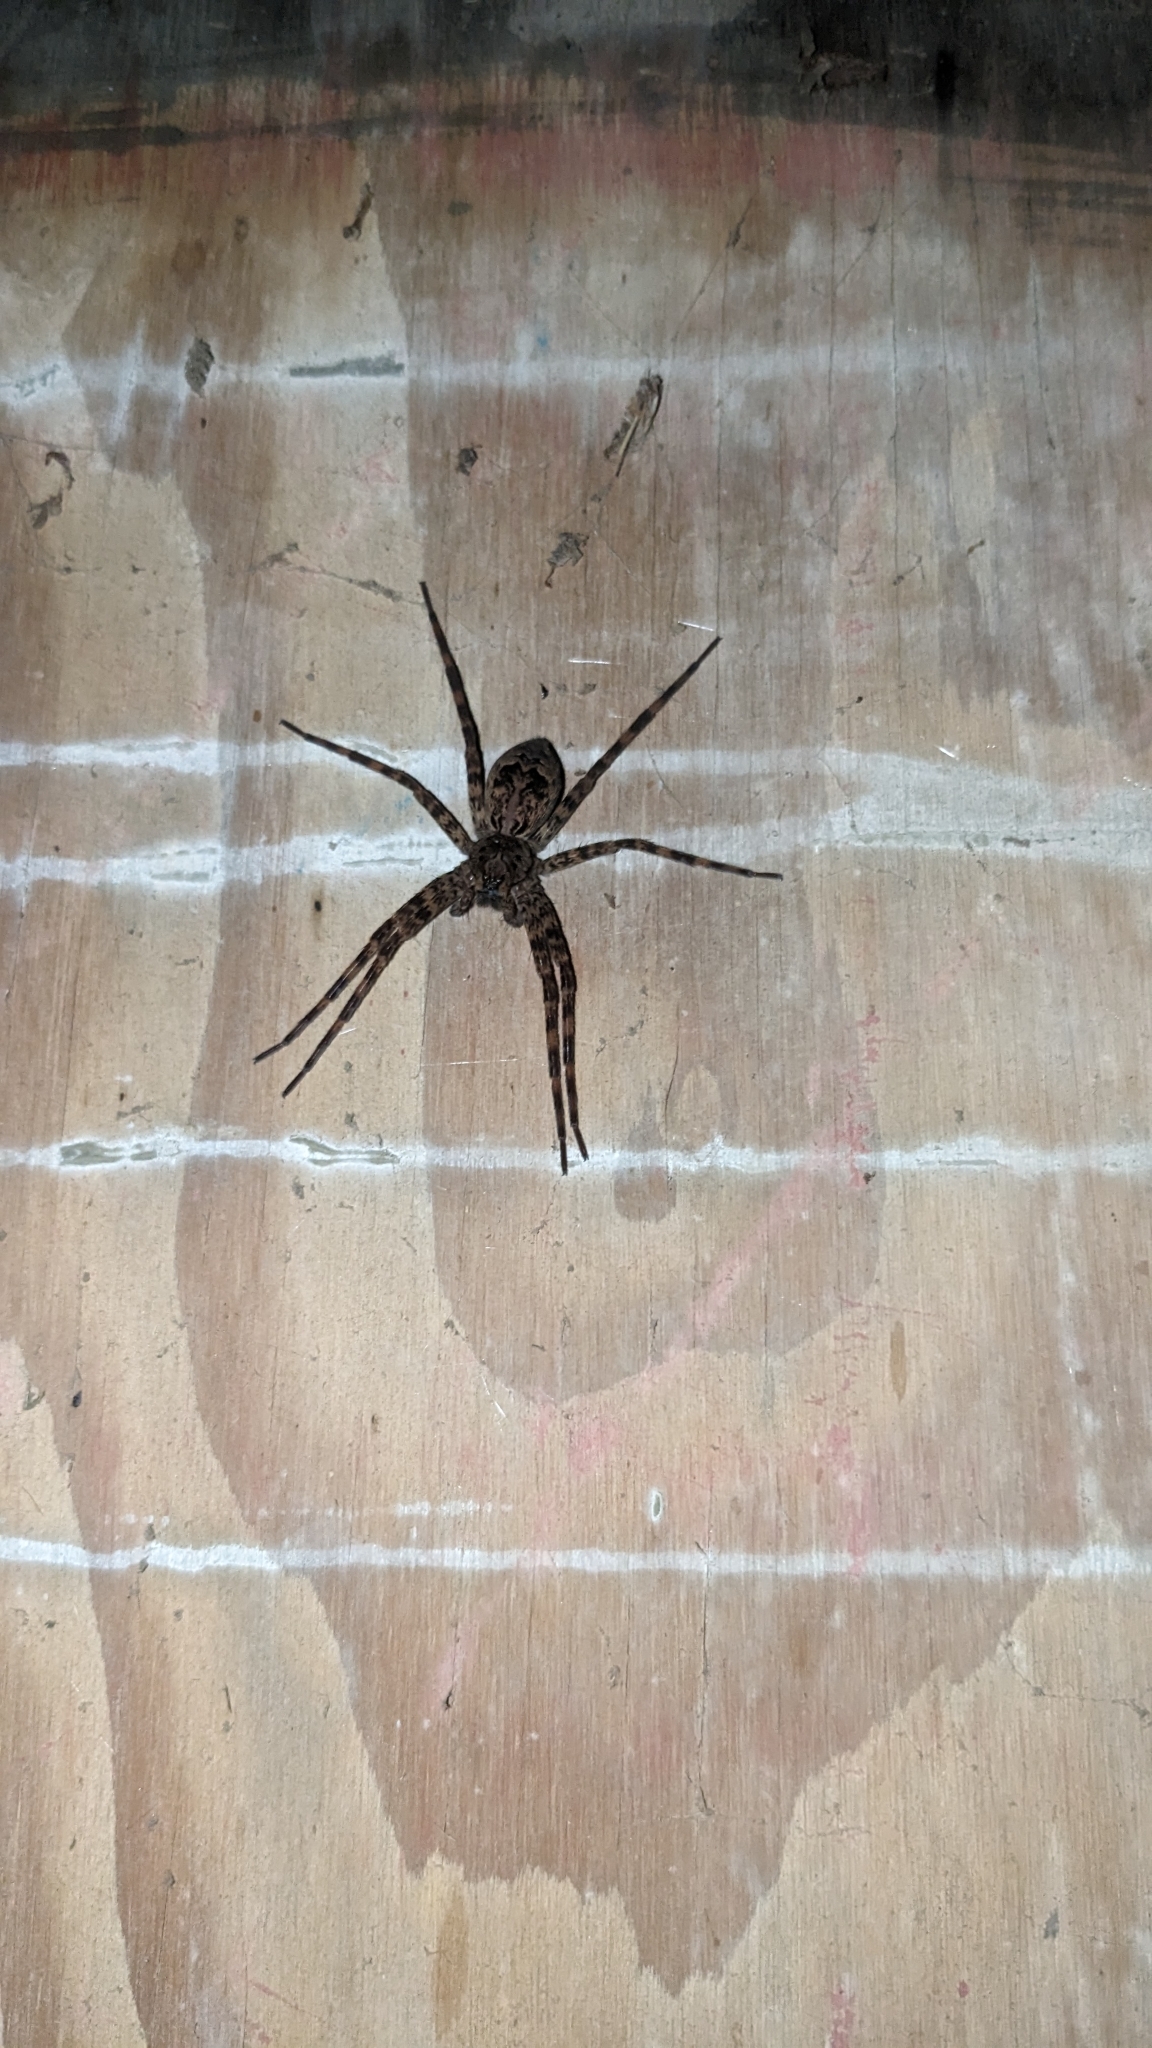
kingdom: Animalia
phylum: Arthropoda
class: Arachnida
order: Araneae
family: Pisauridae
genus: Dolomedes
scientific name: Dolomedes tenebrosus
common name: Dark fishing spider
